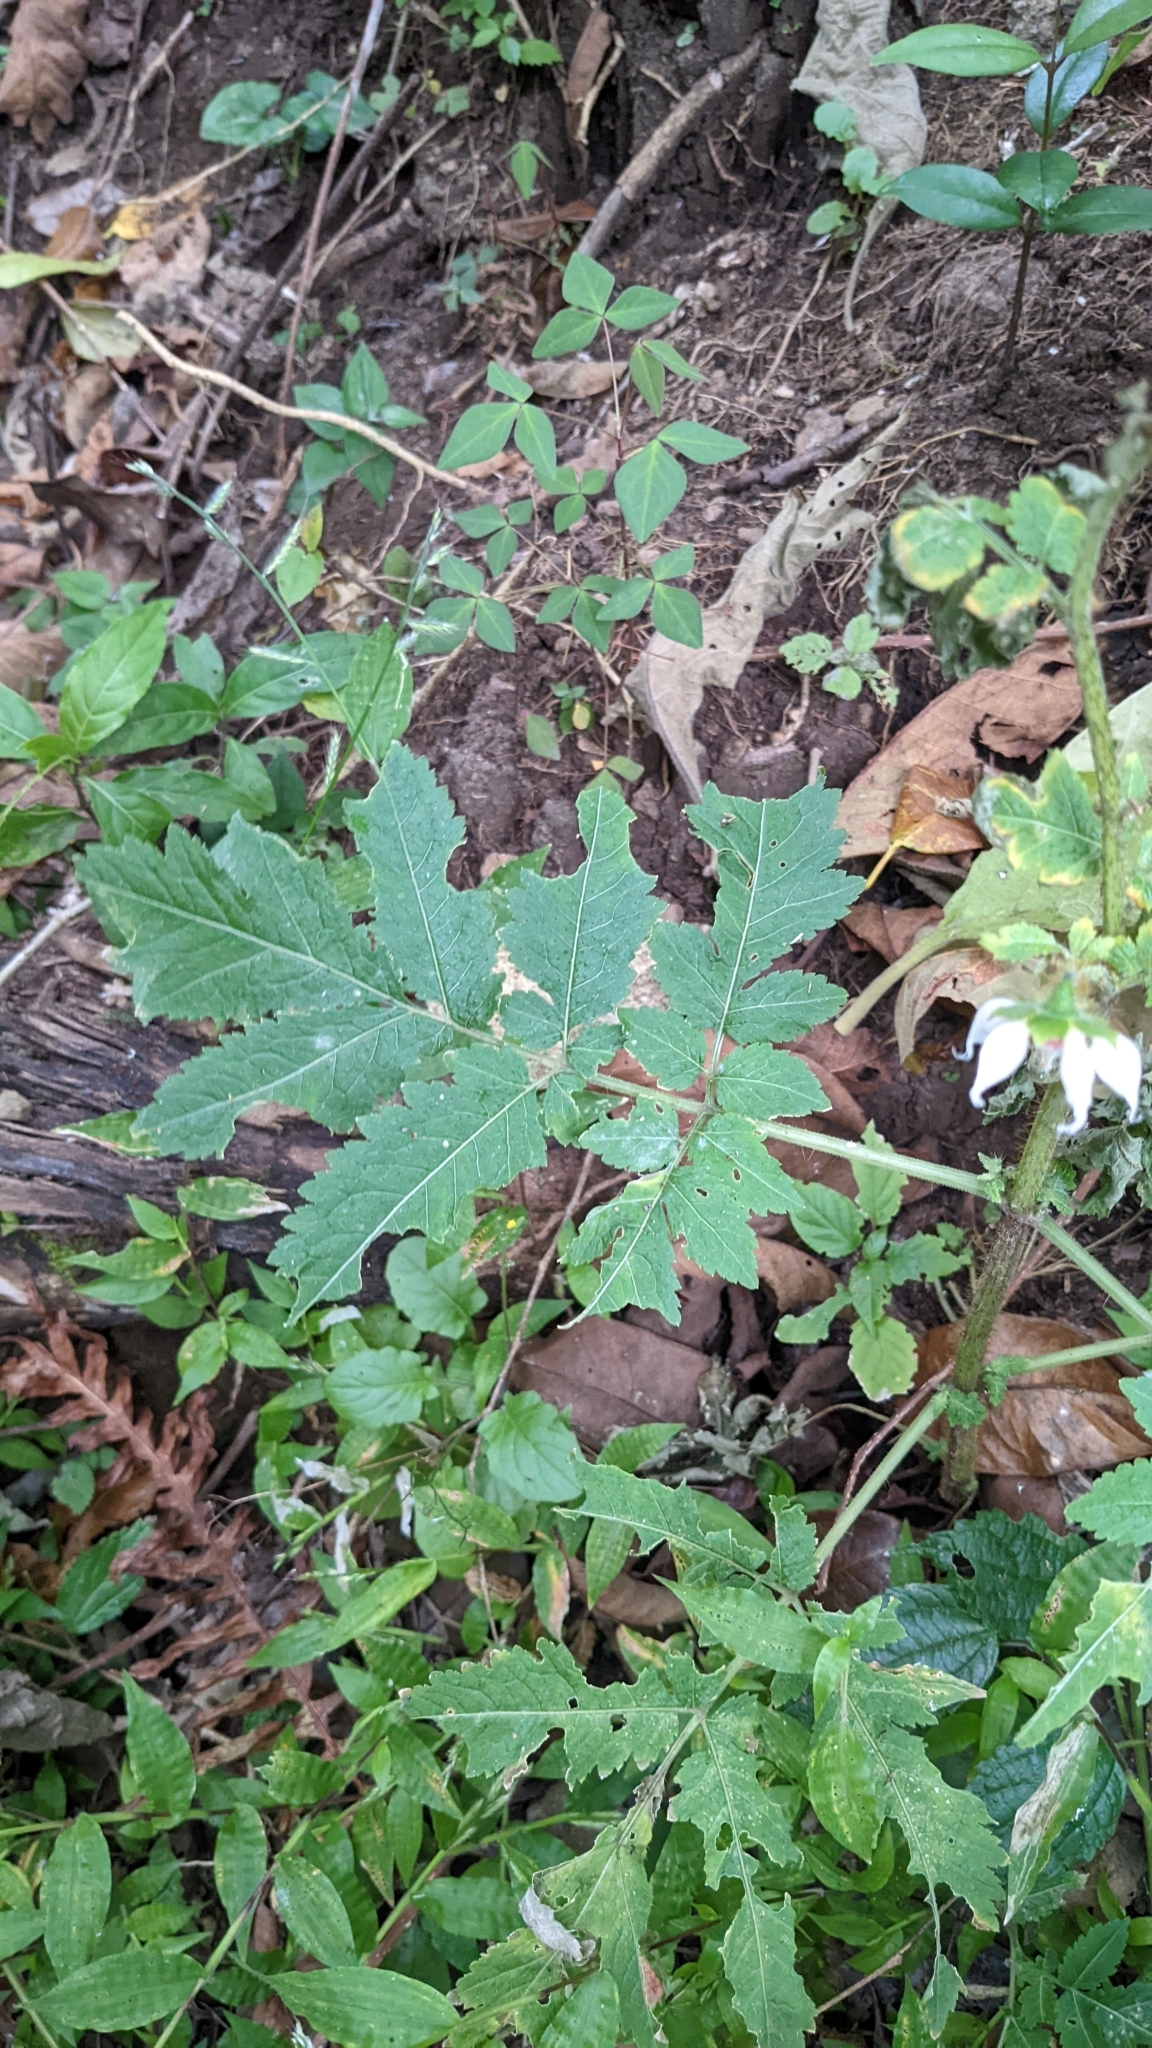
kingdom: Plantae
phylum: Tracheophyta
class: Magnoliopsida
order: Cornales
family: Loasaceae
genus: Nasa
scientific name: Nasa triphylla
